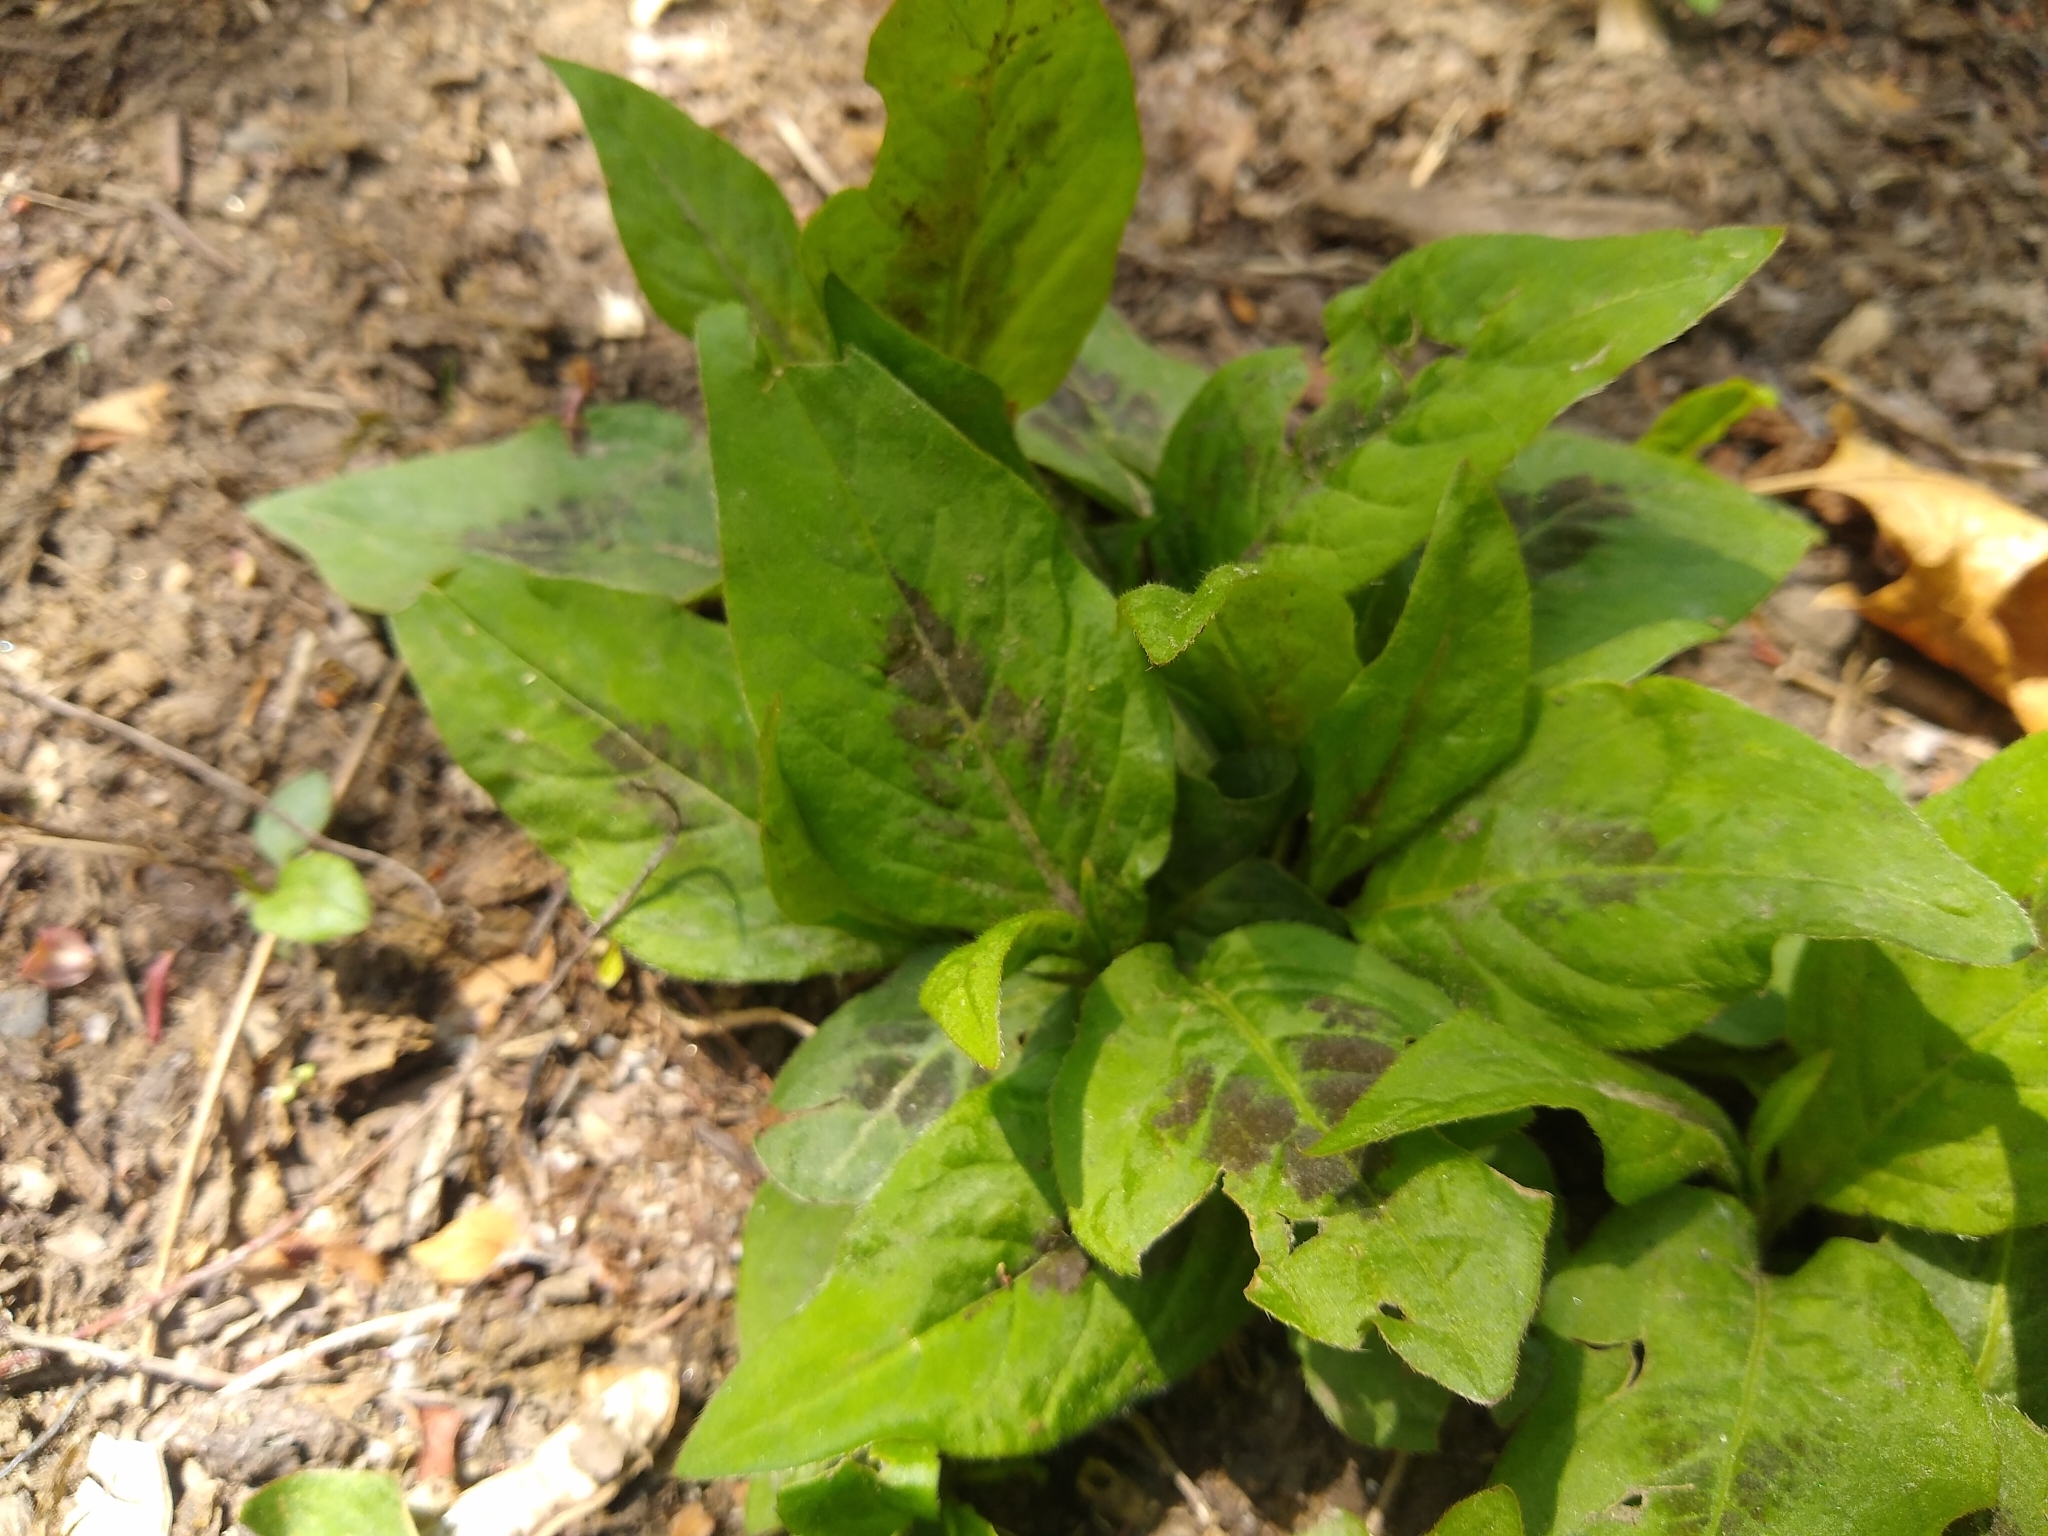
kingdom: Plantae
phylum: Tracheophyta
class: Magnoliopsida
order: Caryophyllales
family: Polygonaceae
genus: Persicaria
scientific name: Persicaria virginiana
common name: Jumpseed
